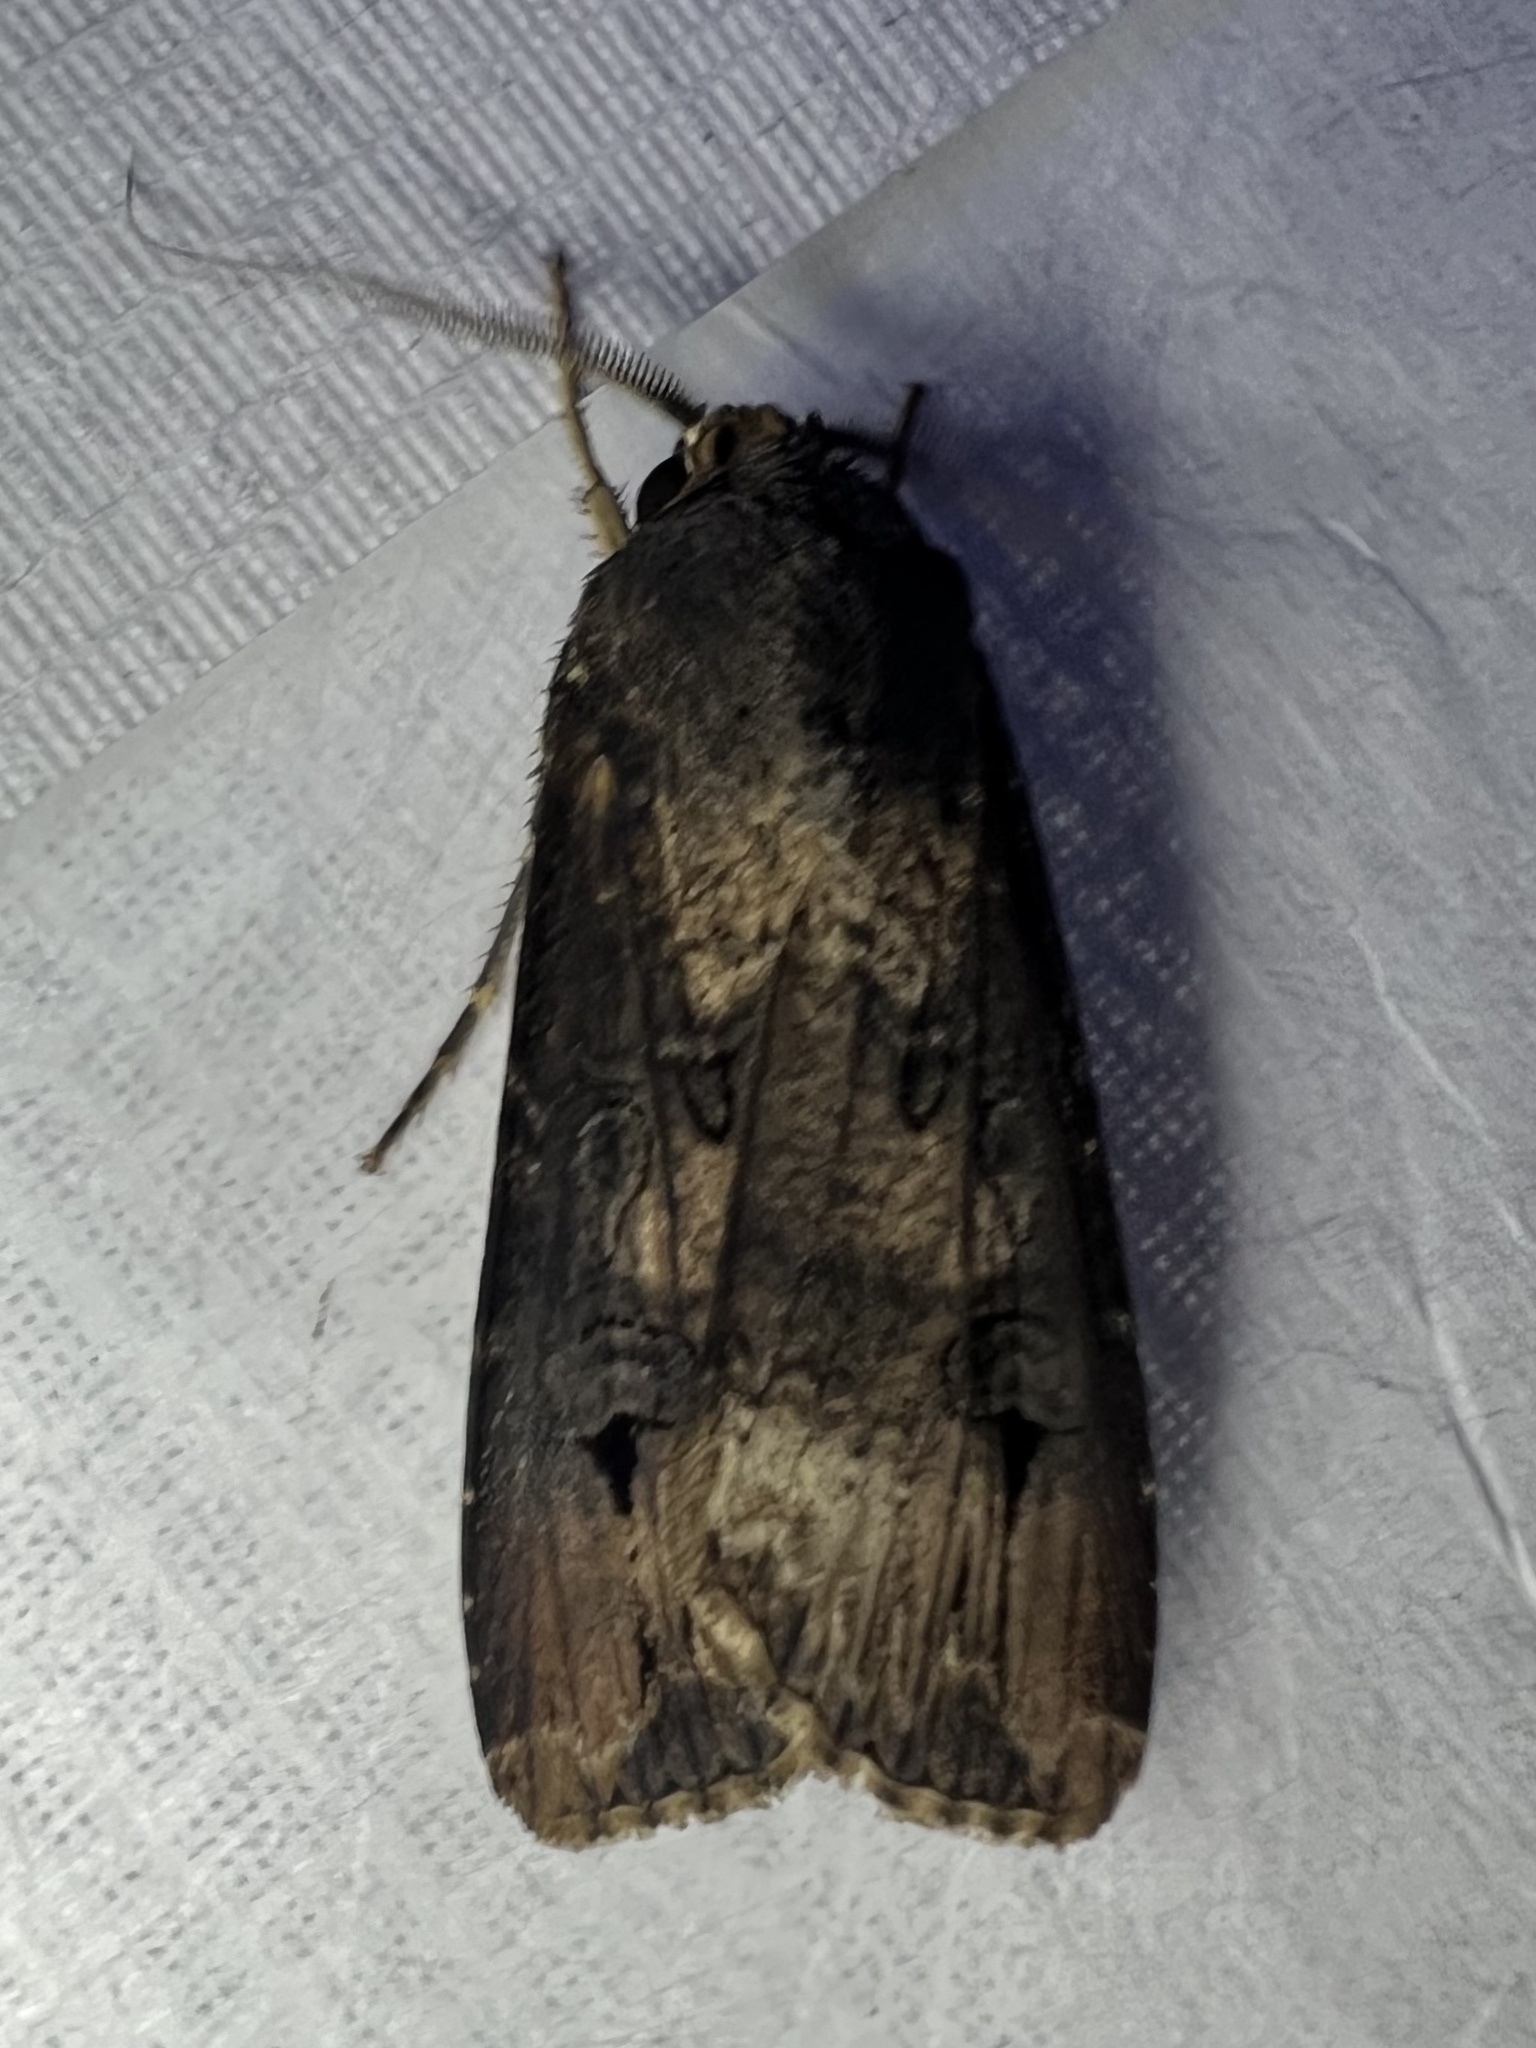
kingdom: Animalia
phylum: Arthropoda
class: Insecta
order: Lepidoptera
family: Noctuidae
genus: Agrotis
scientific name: Agrotis ipsilon
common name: Dark sword-grass
